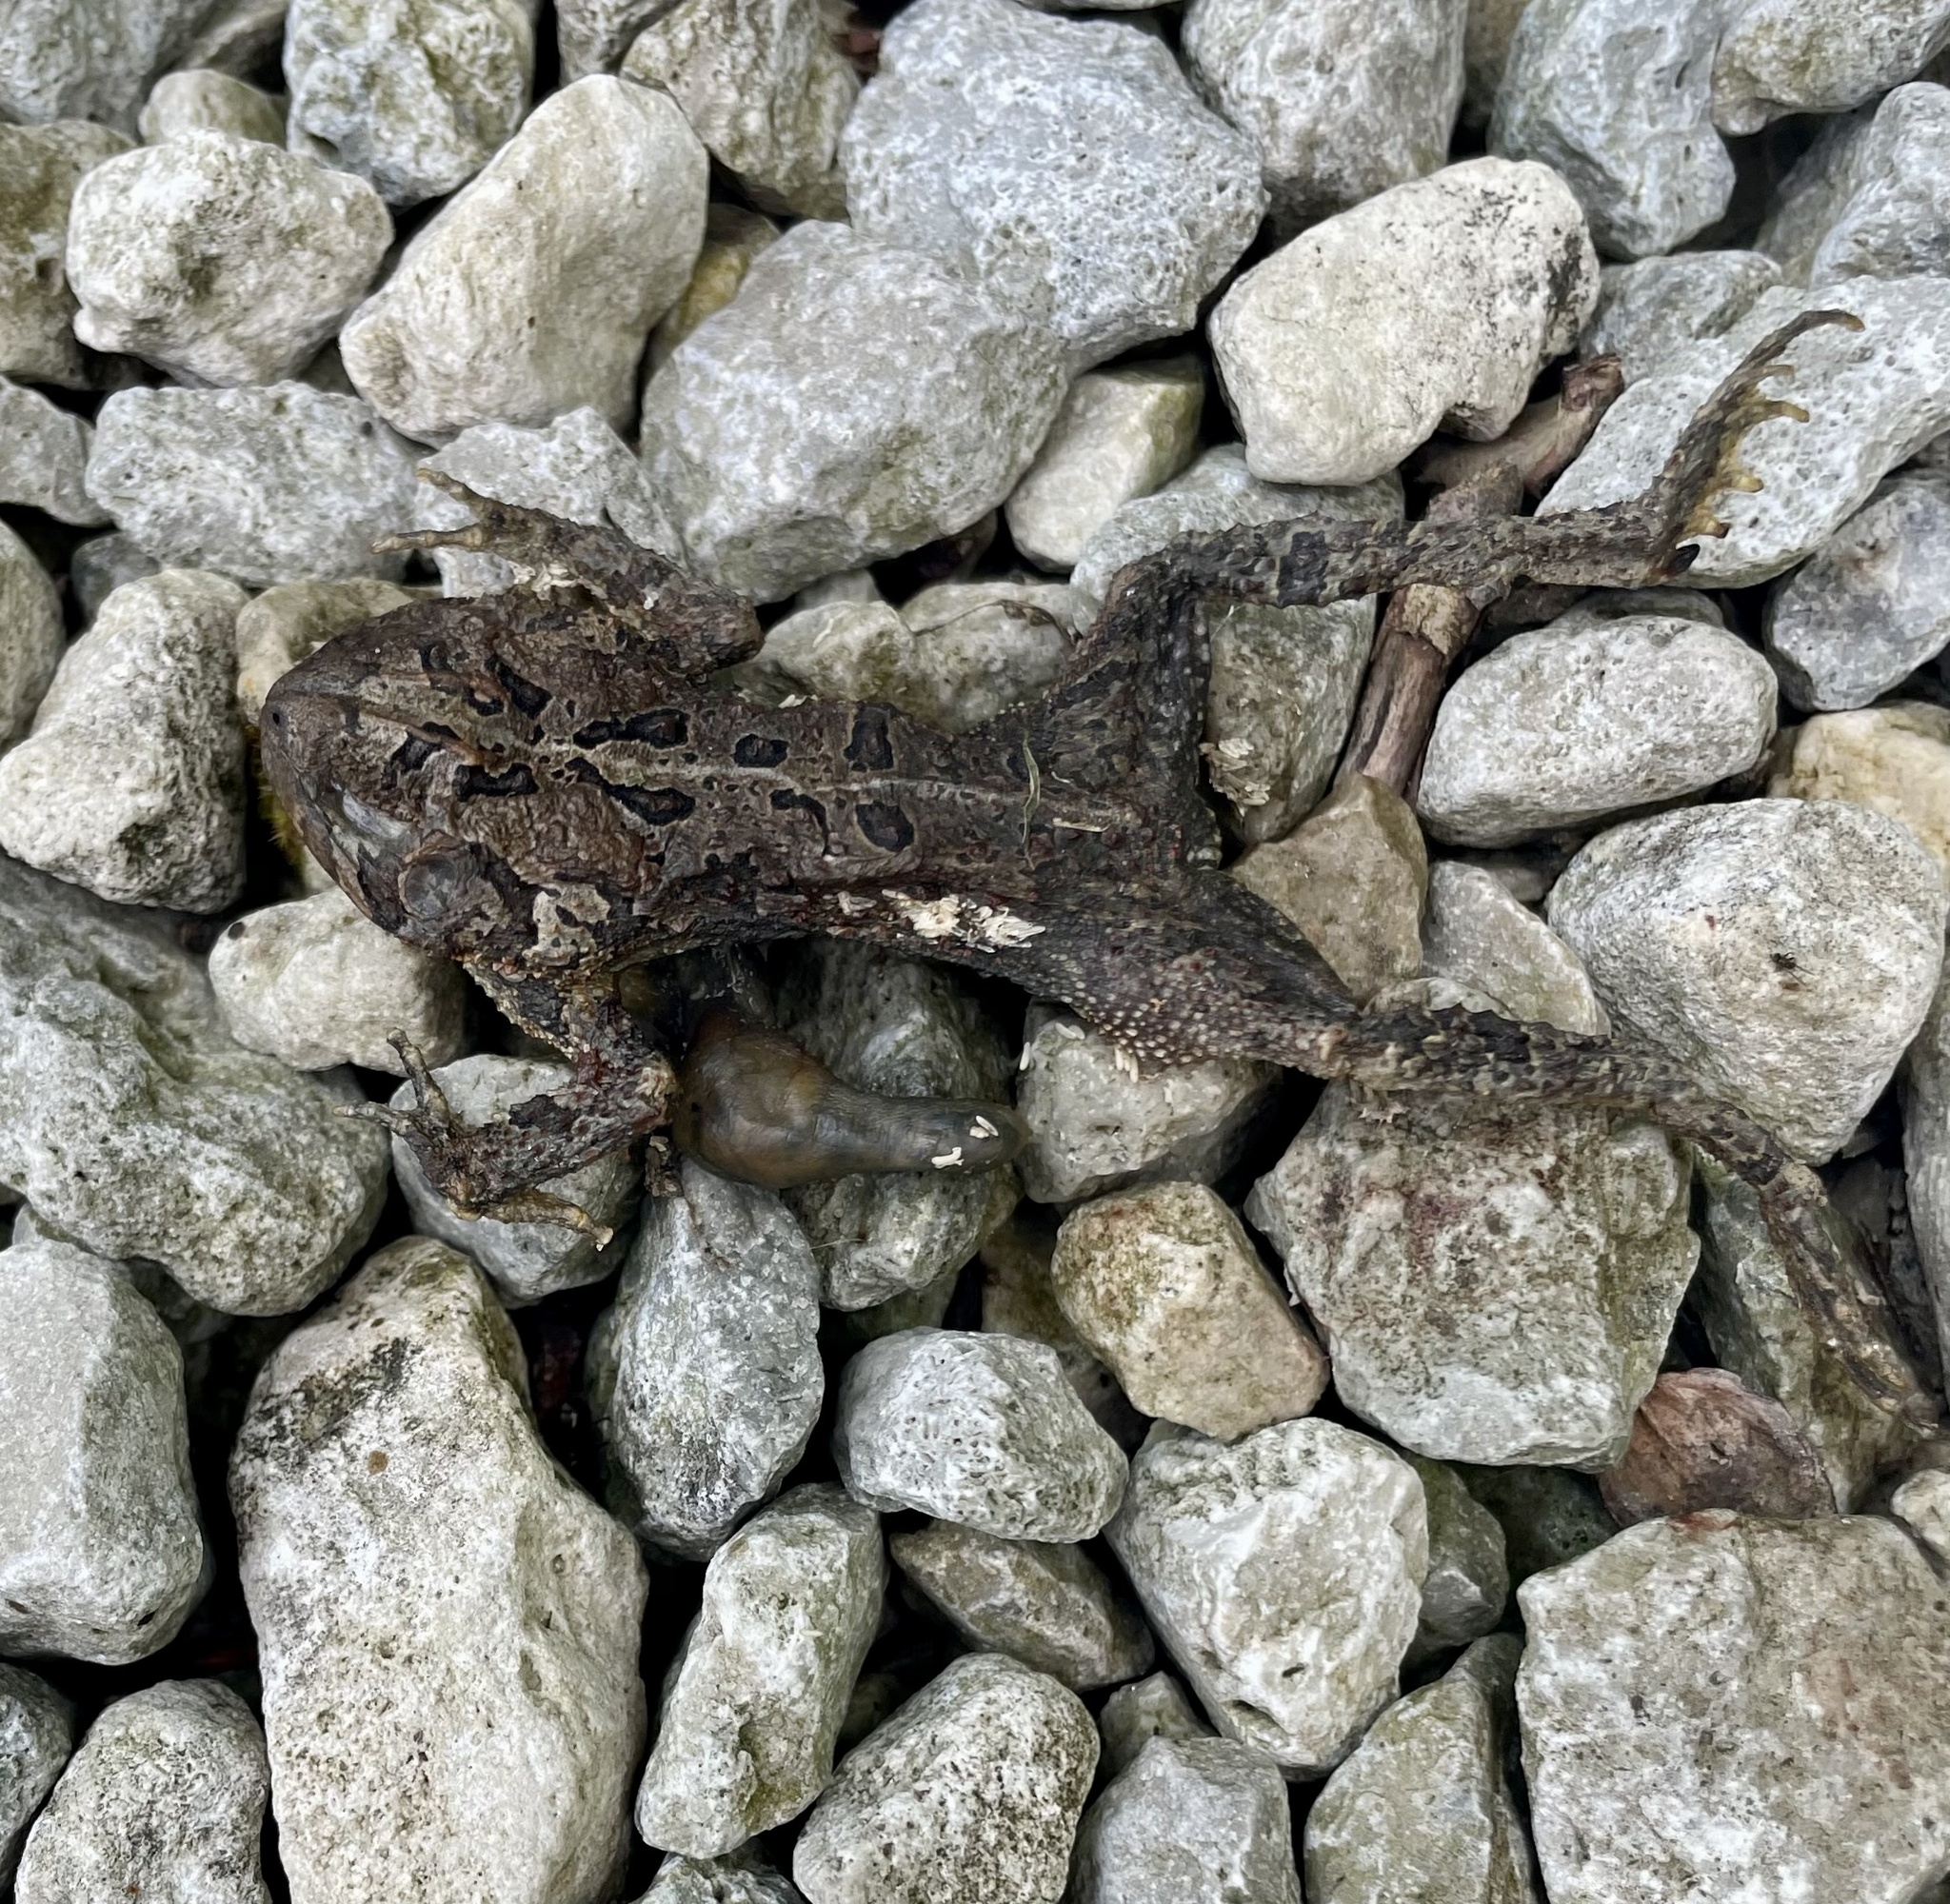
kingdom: Animalia
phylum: Chordata
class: Amphibia
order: Anura
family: Bufonidae
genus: Anaxyrus
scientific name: Anaxyrus americanus
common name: American toad
